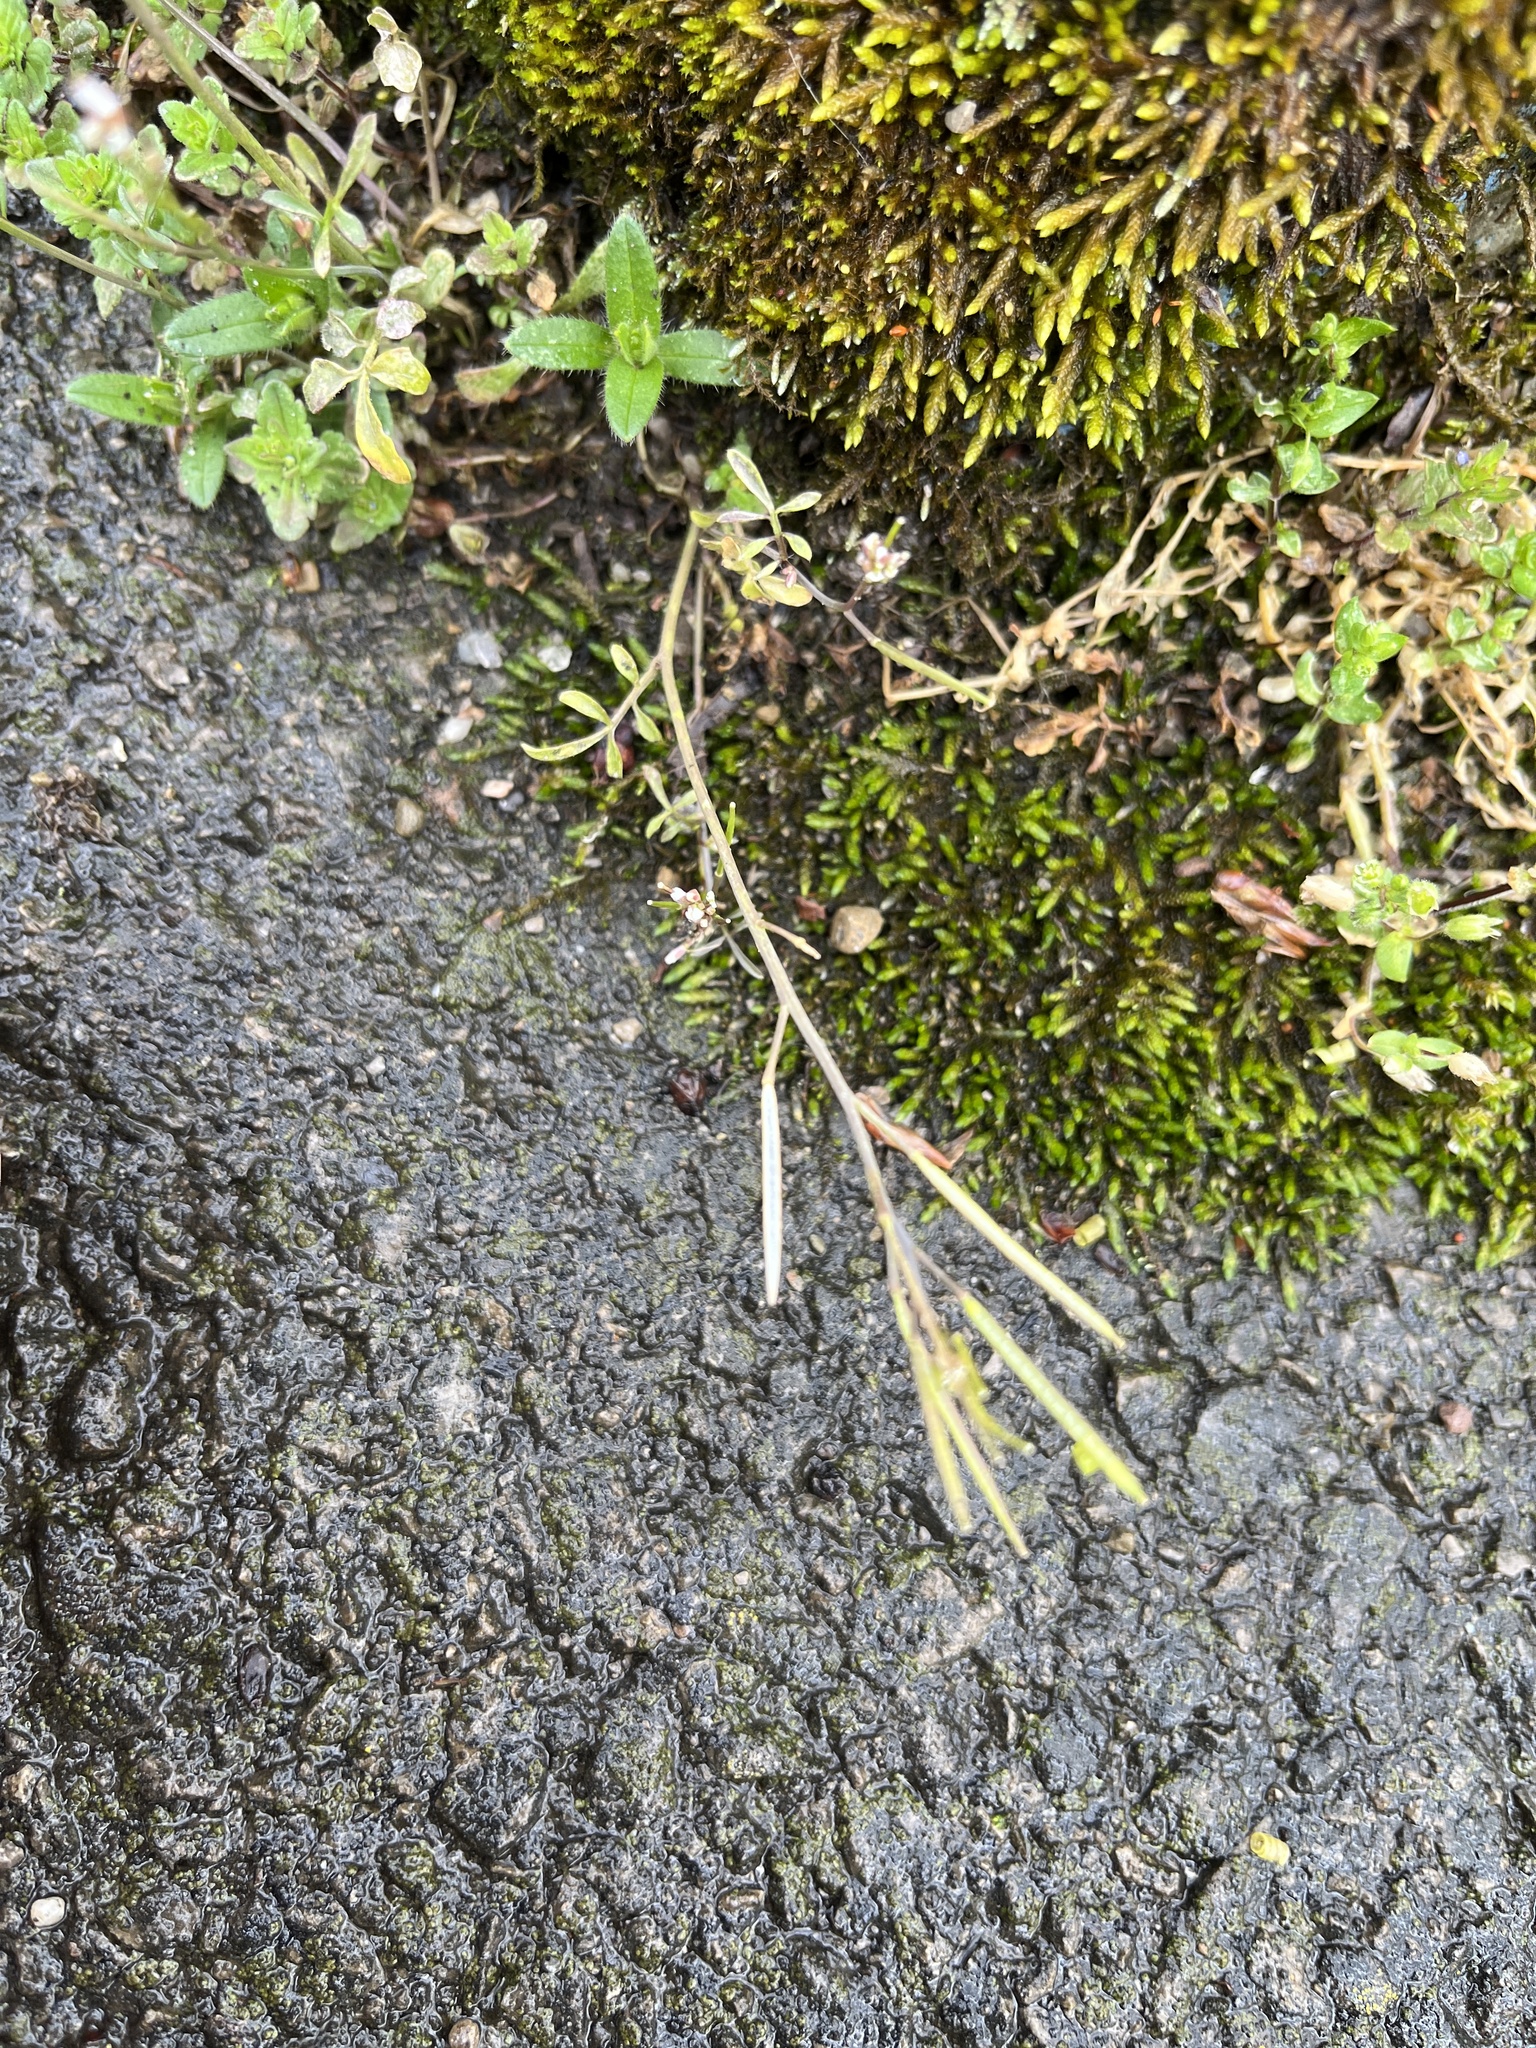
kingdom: Plantae
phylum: Tracheophyta
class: Magnoliopsida
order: Brassicales
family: Brassicaceae
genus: Cardamine
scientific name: Cardamine hirsuta
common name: Hairy bittercress
